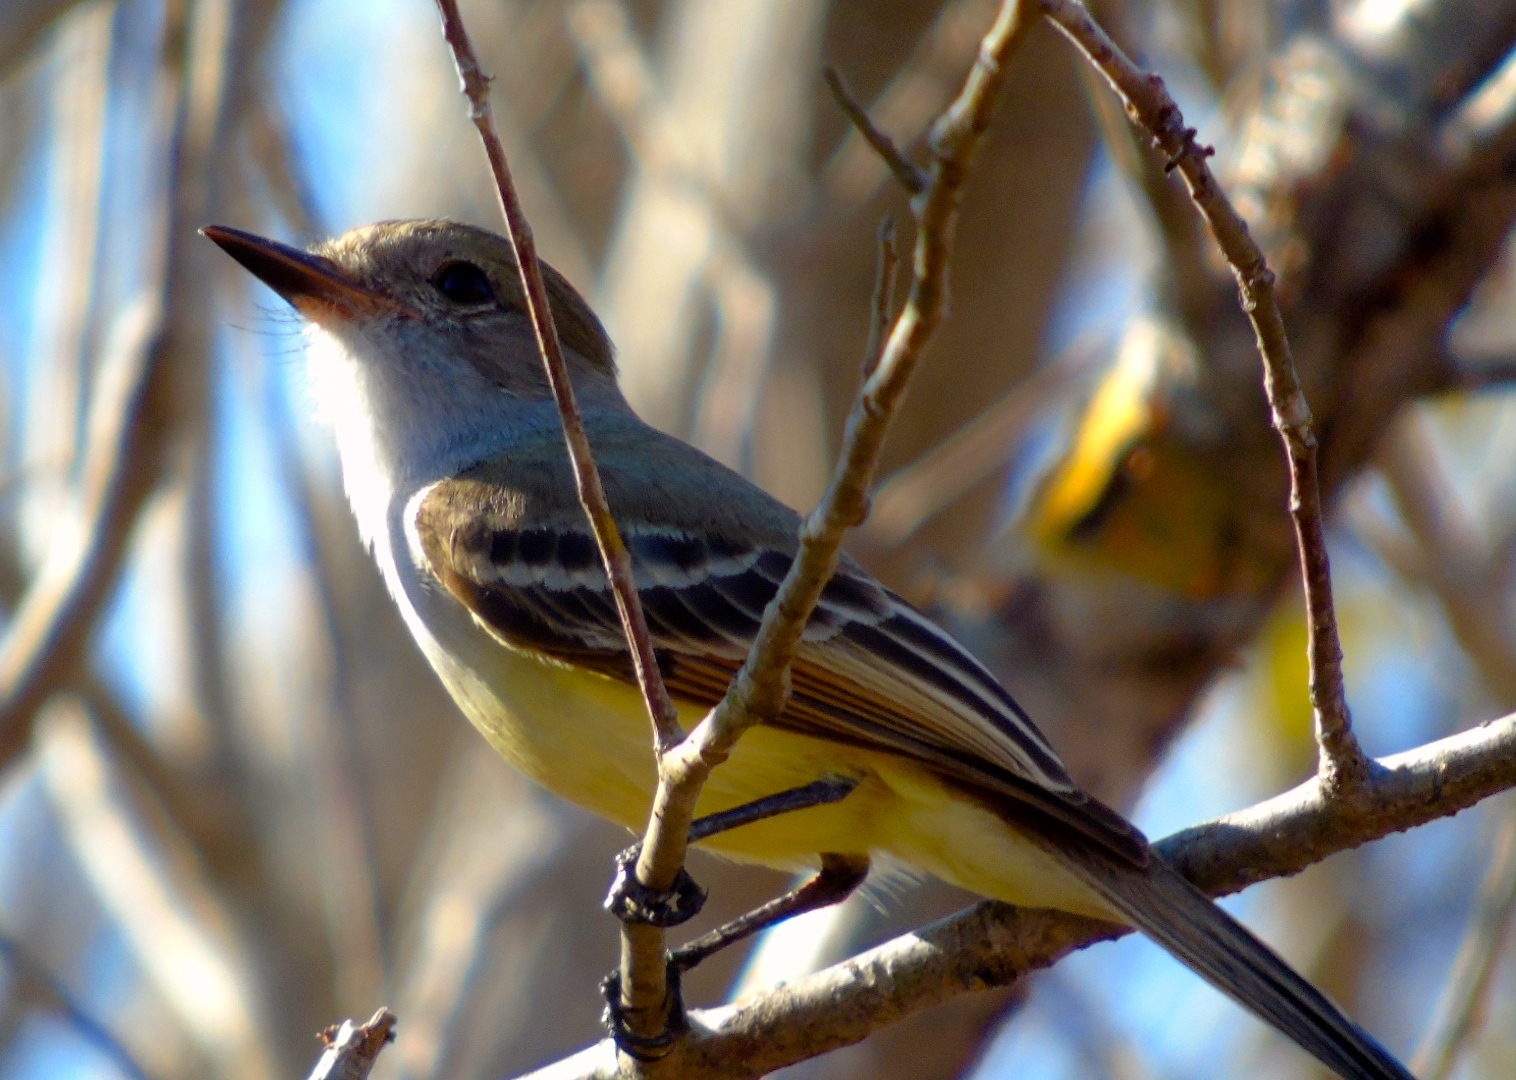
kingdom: Animalia
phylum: Chordata
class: Aves
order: Passeriformes
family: Tyrannidae
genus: Myiarchus
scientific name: Myiarchus nuttingi
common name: Nutting's flycatcher
